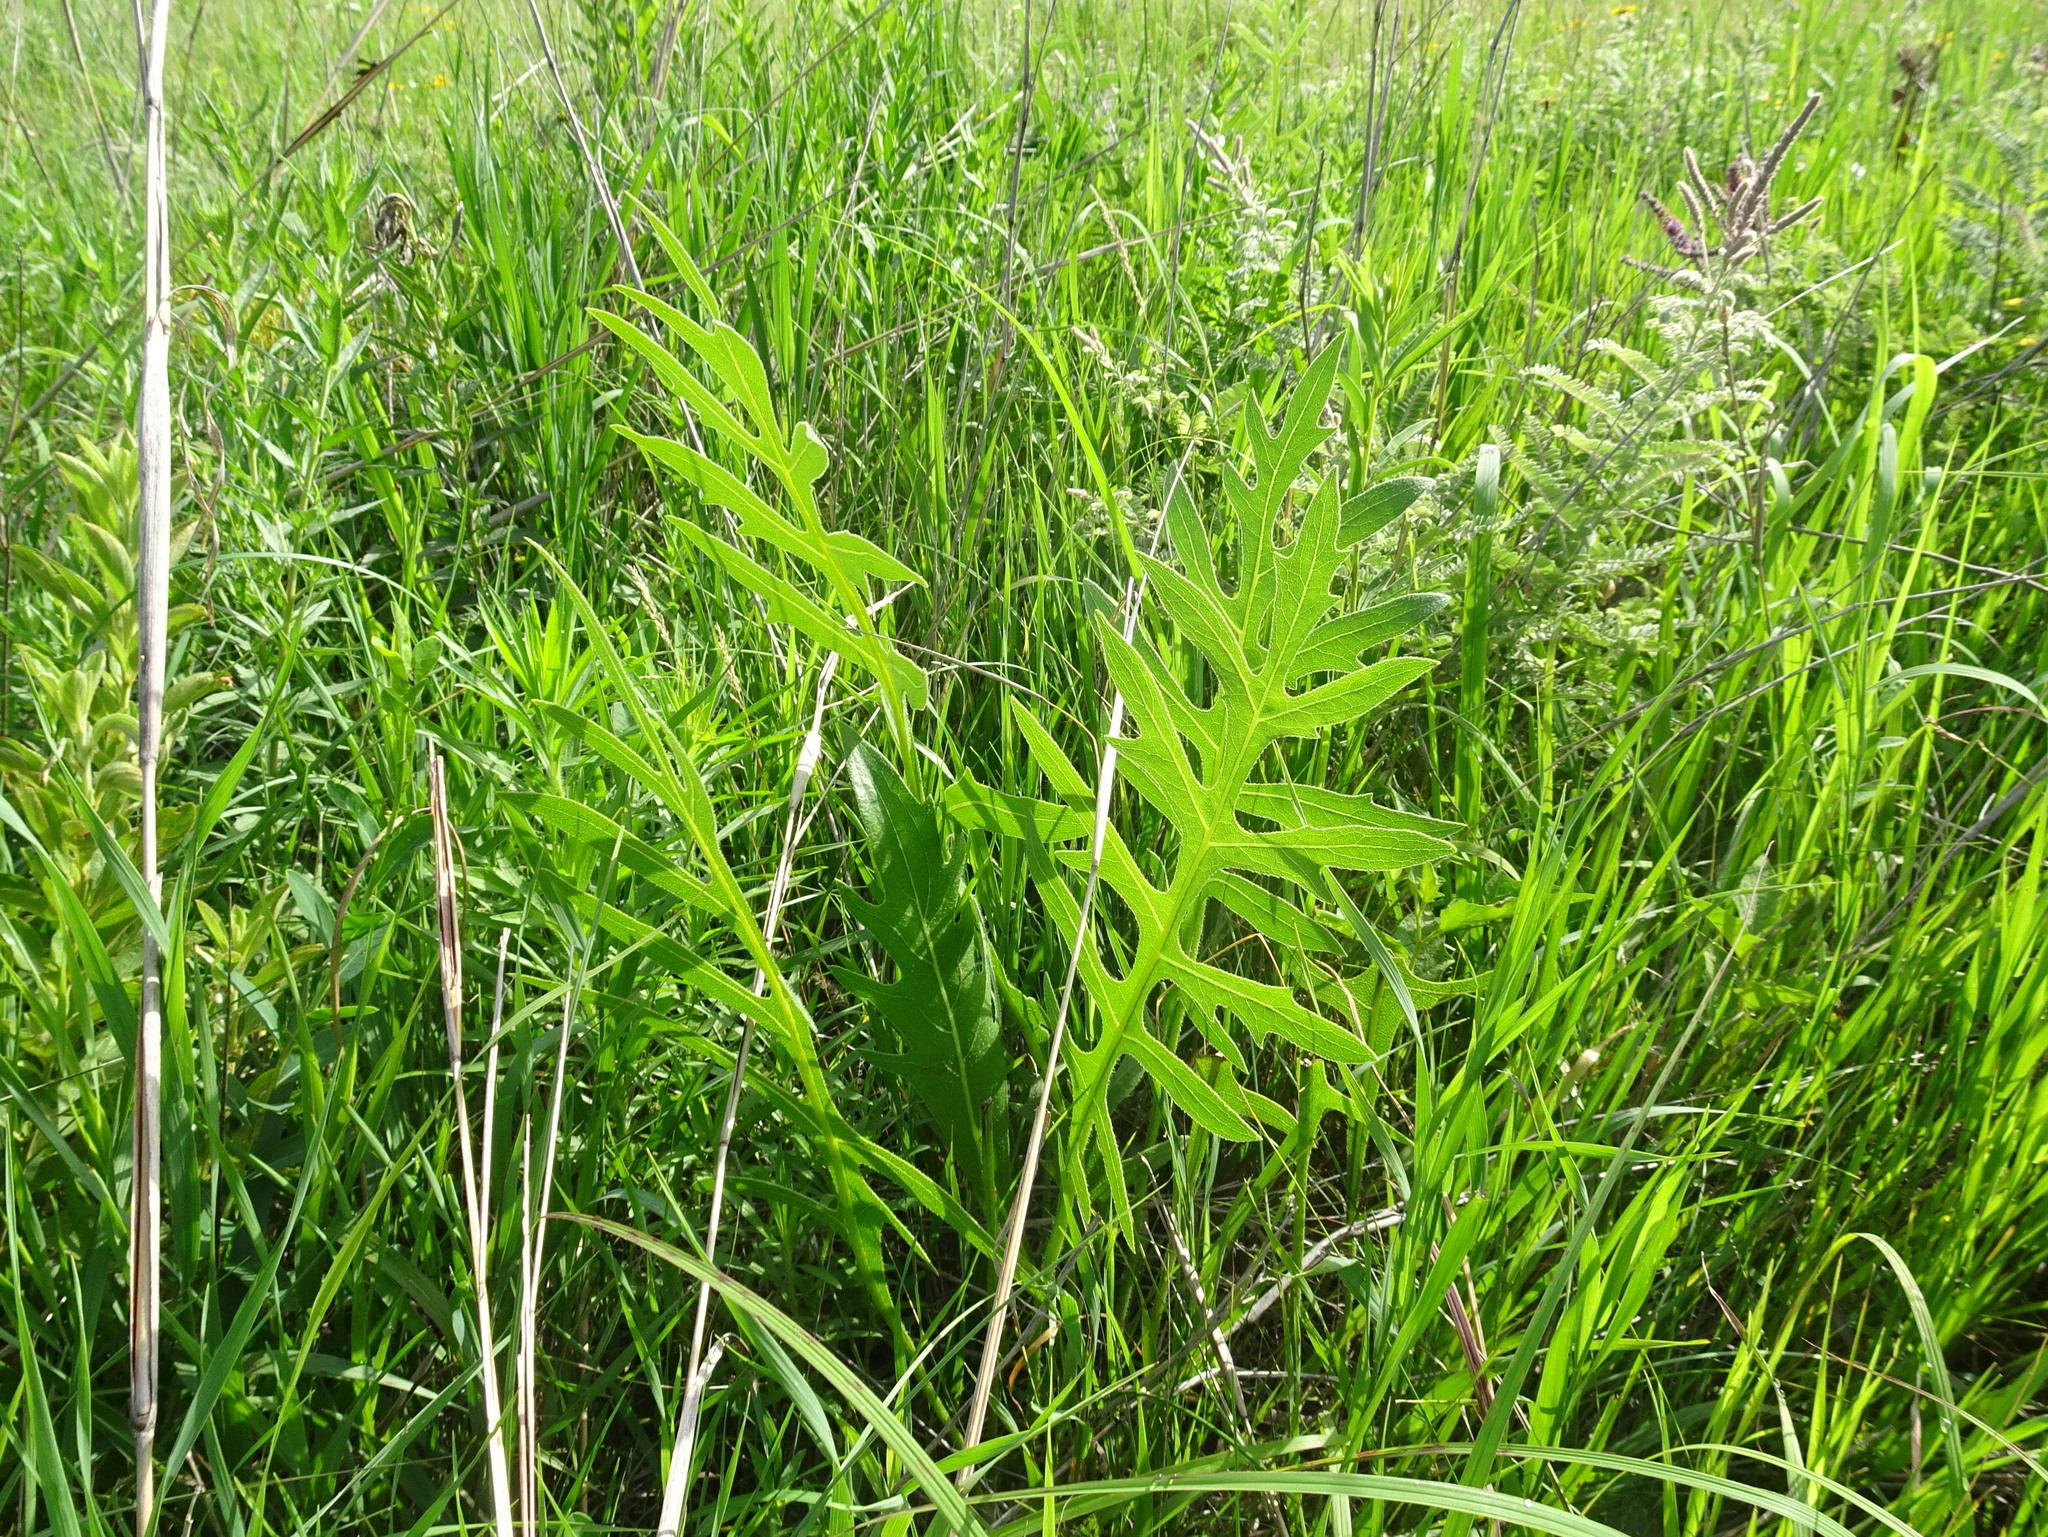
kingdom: Plantae
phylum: Tracheophyta
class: Magnoliopsida
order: Asterales
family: Asteraceae
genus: Silphium
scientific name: Silphium laciniatum
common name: Polarplant
